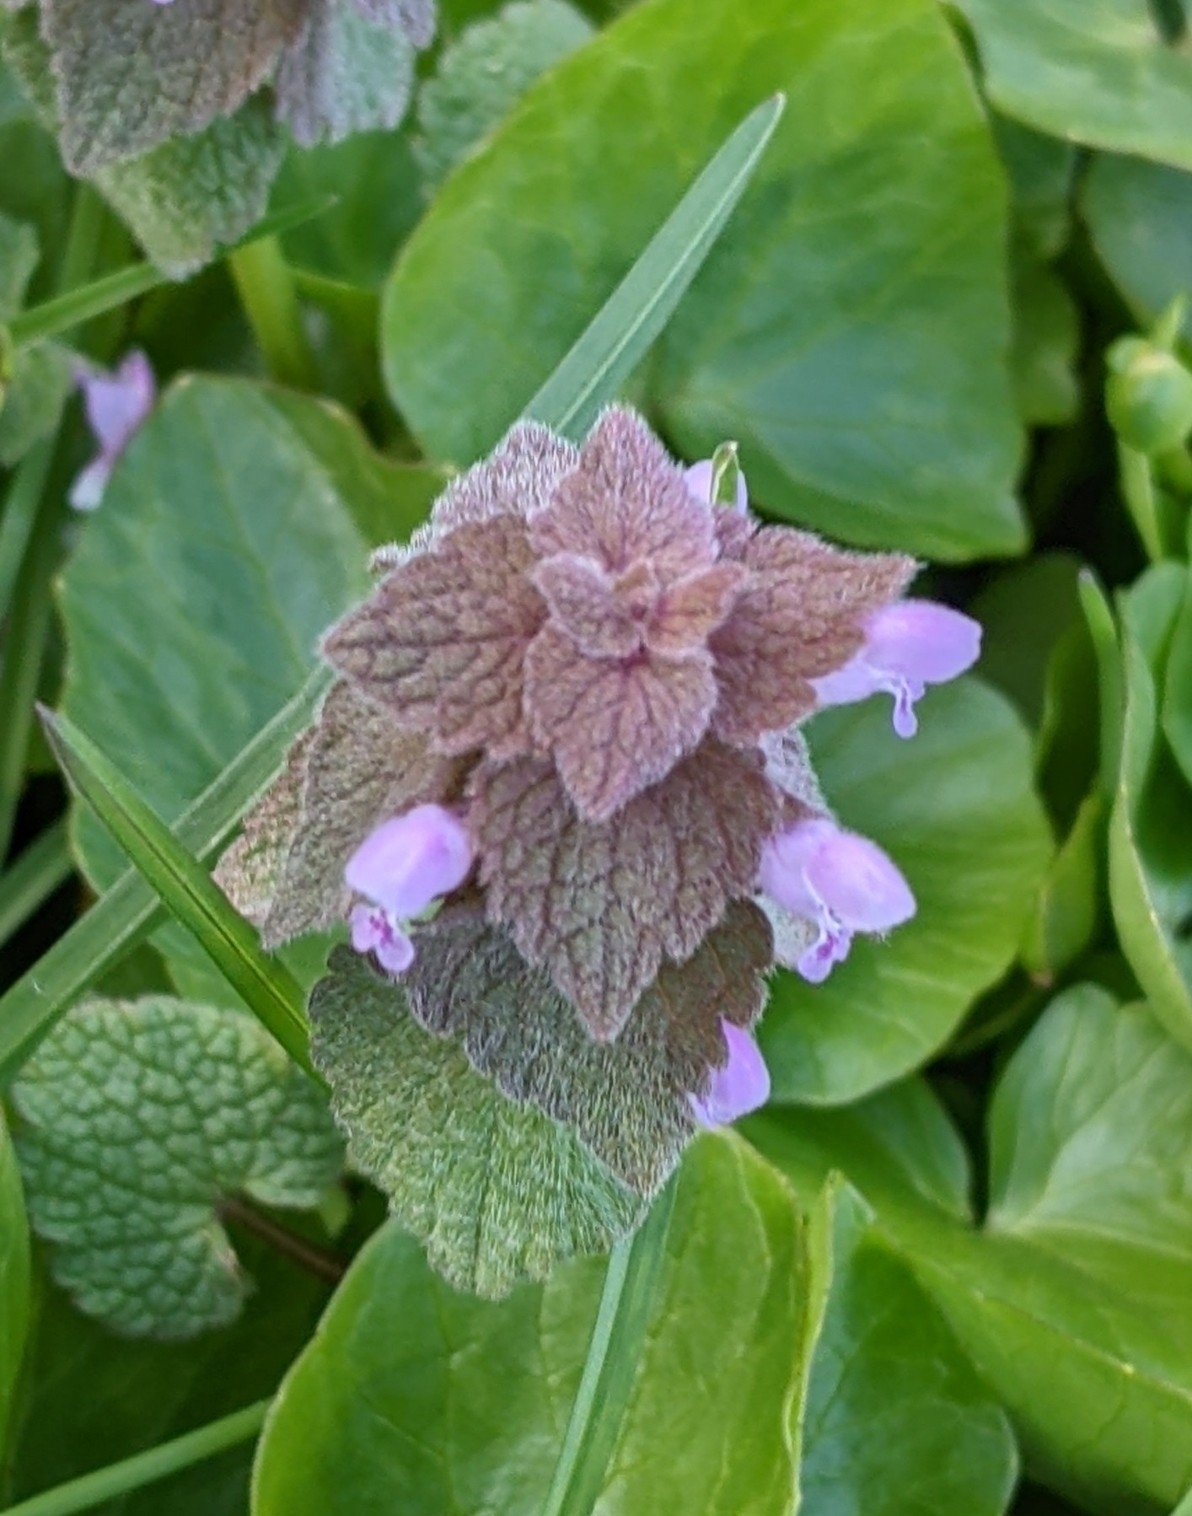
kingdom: Plantae
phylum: Tracheophyta
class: Magnoliopsida
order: Lamiales
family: Lamiaceae
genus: Lamium
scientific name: Lamium purpureum
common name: Red dead-nettle
